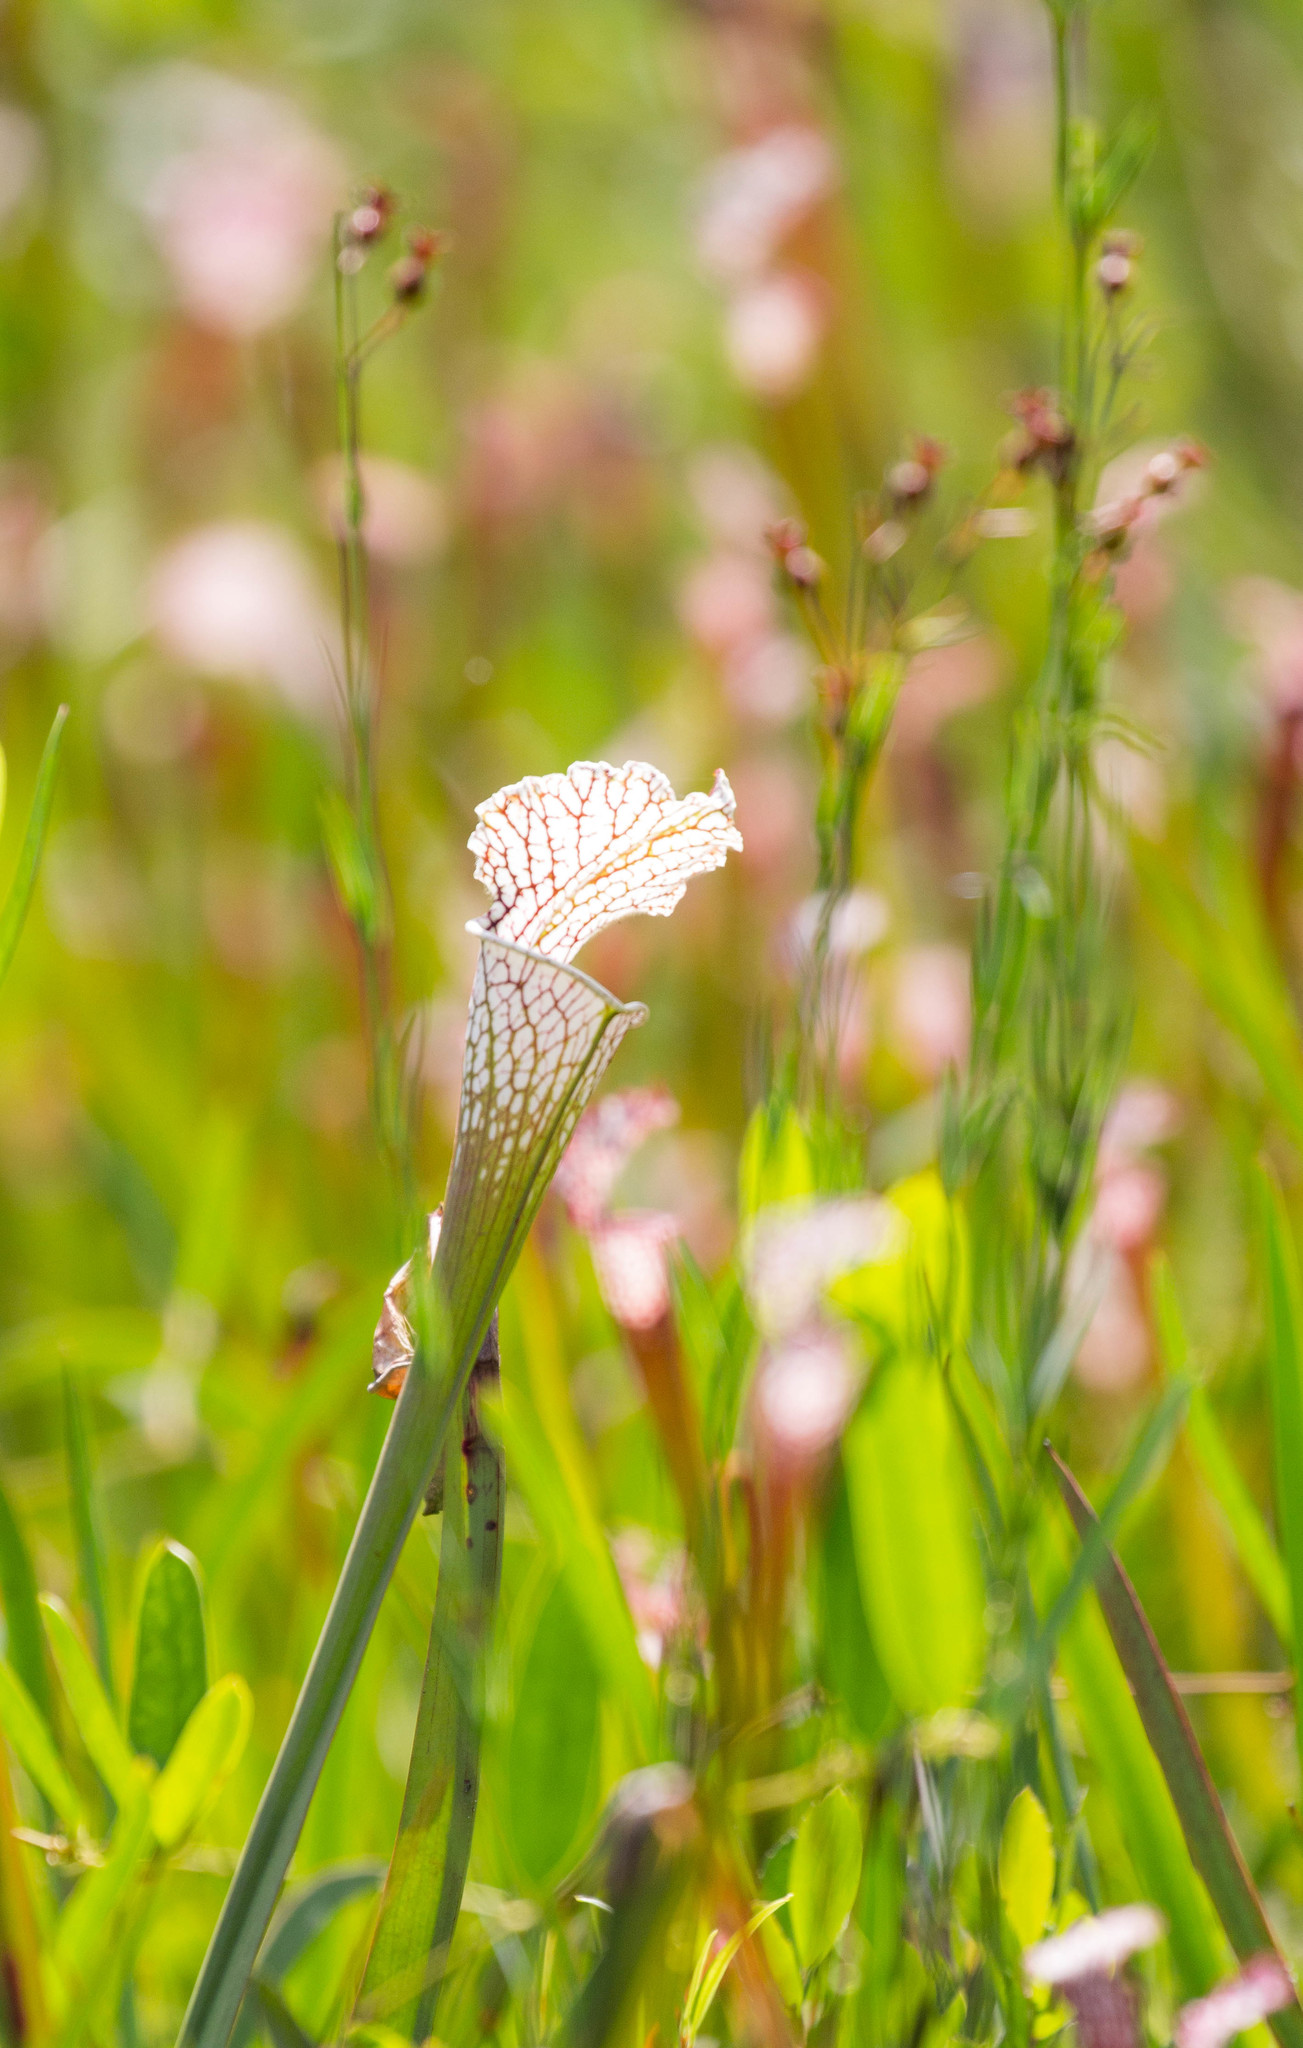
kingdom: Plantae
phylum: Tracheophyta
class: Magnoliopsida
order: Ericales
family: Sarraceniaceae
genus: Sarracenia
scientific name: Sarracenia leucophylla
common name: Purple trumpetleaf
